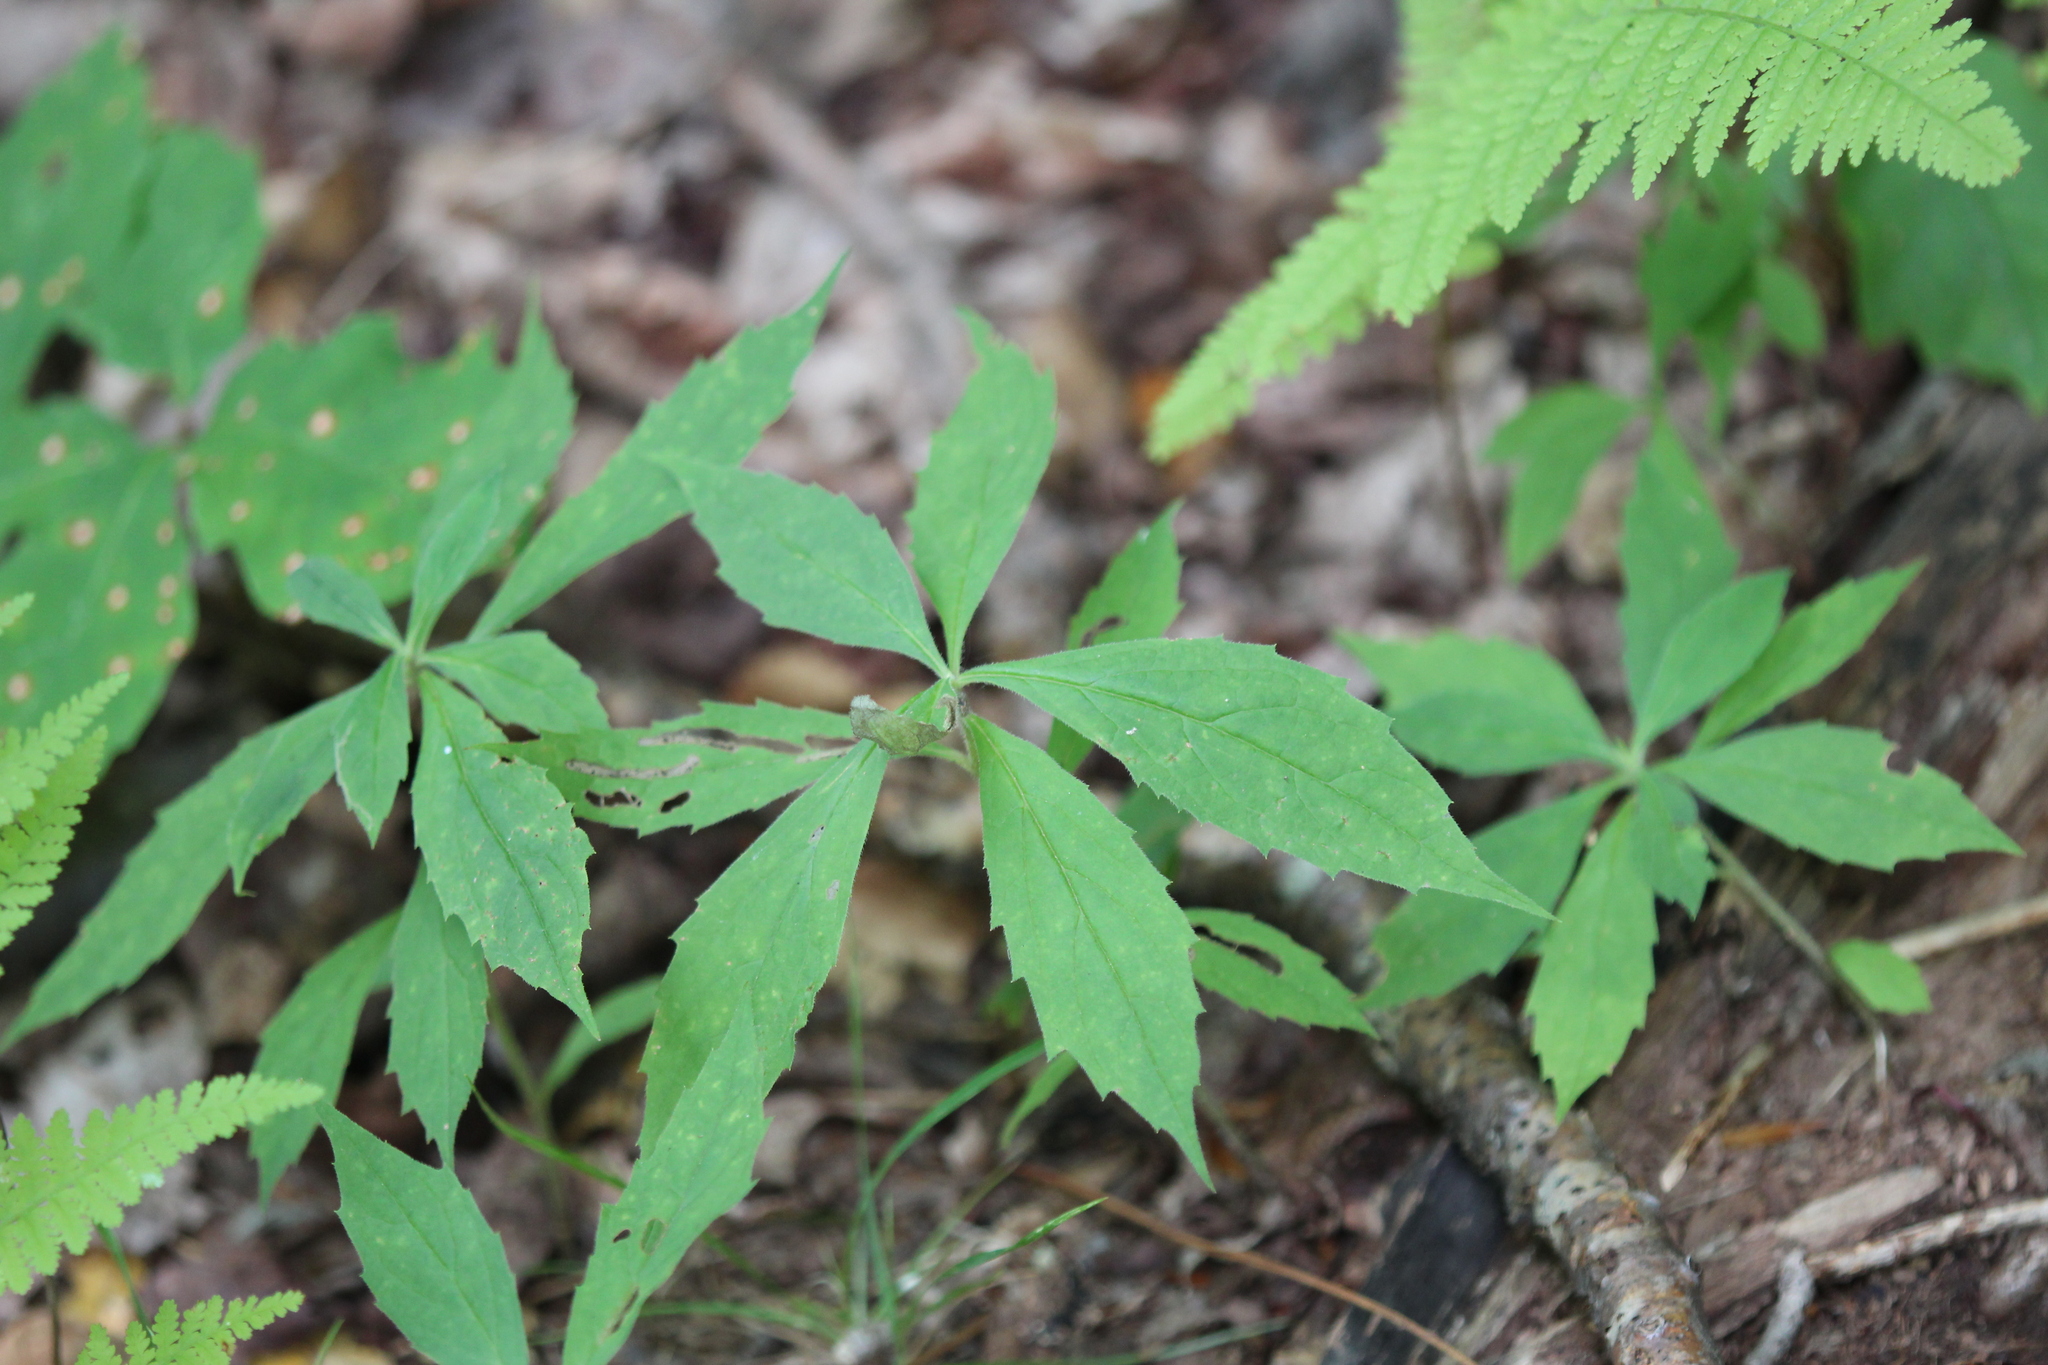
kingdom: Plantae
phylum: Tracheophyta
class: Magnoliopsida
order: Asterales
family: Asteraceae
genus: Oclemena
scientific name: Oclemena acuminata
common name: Mountain aster
